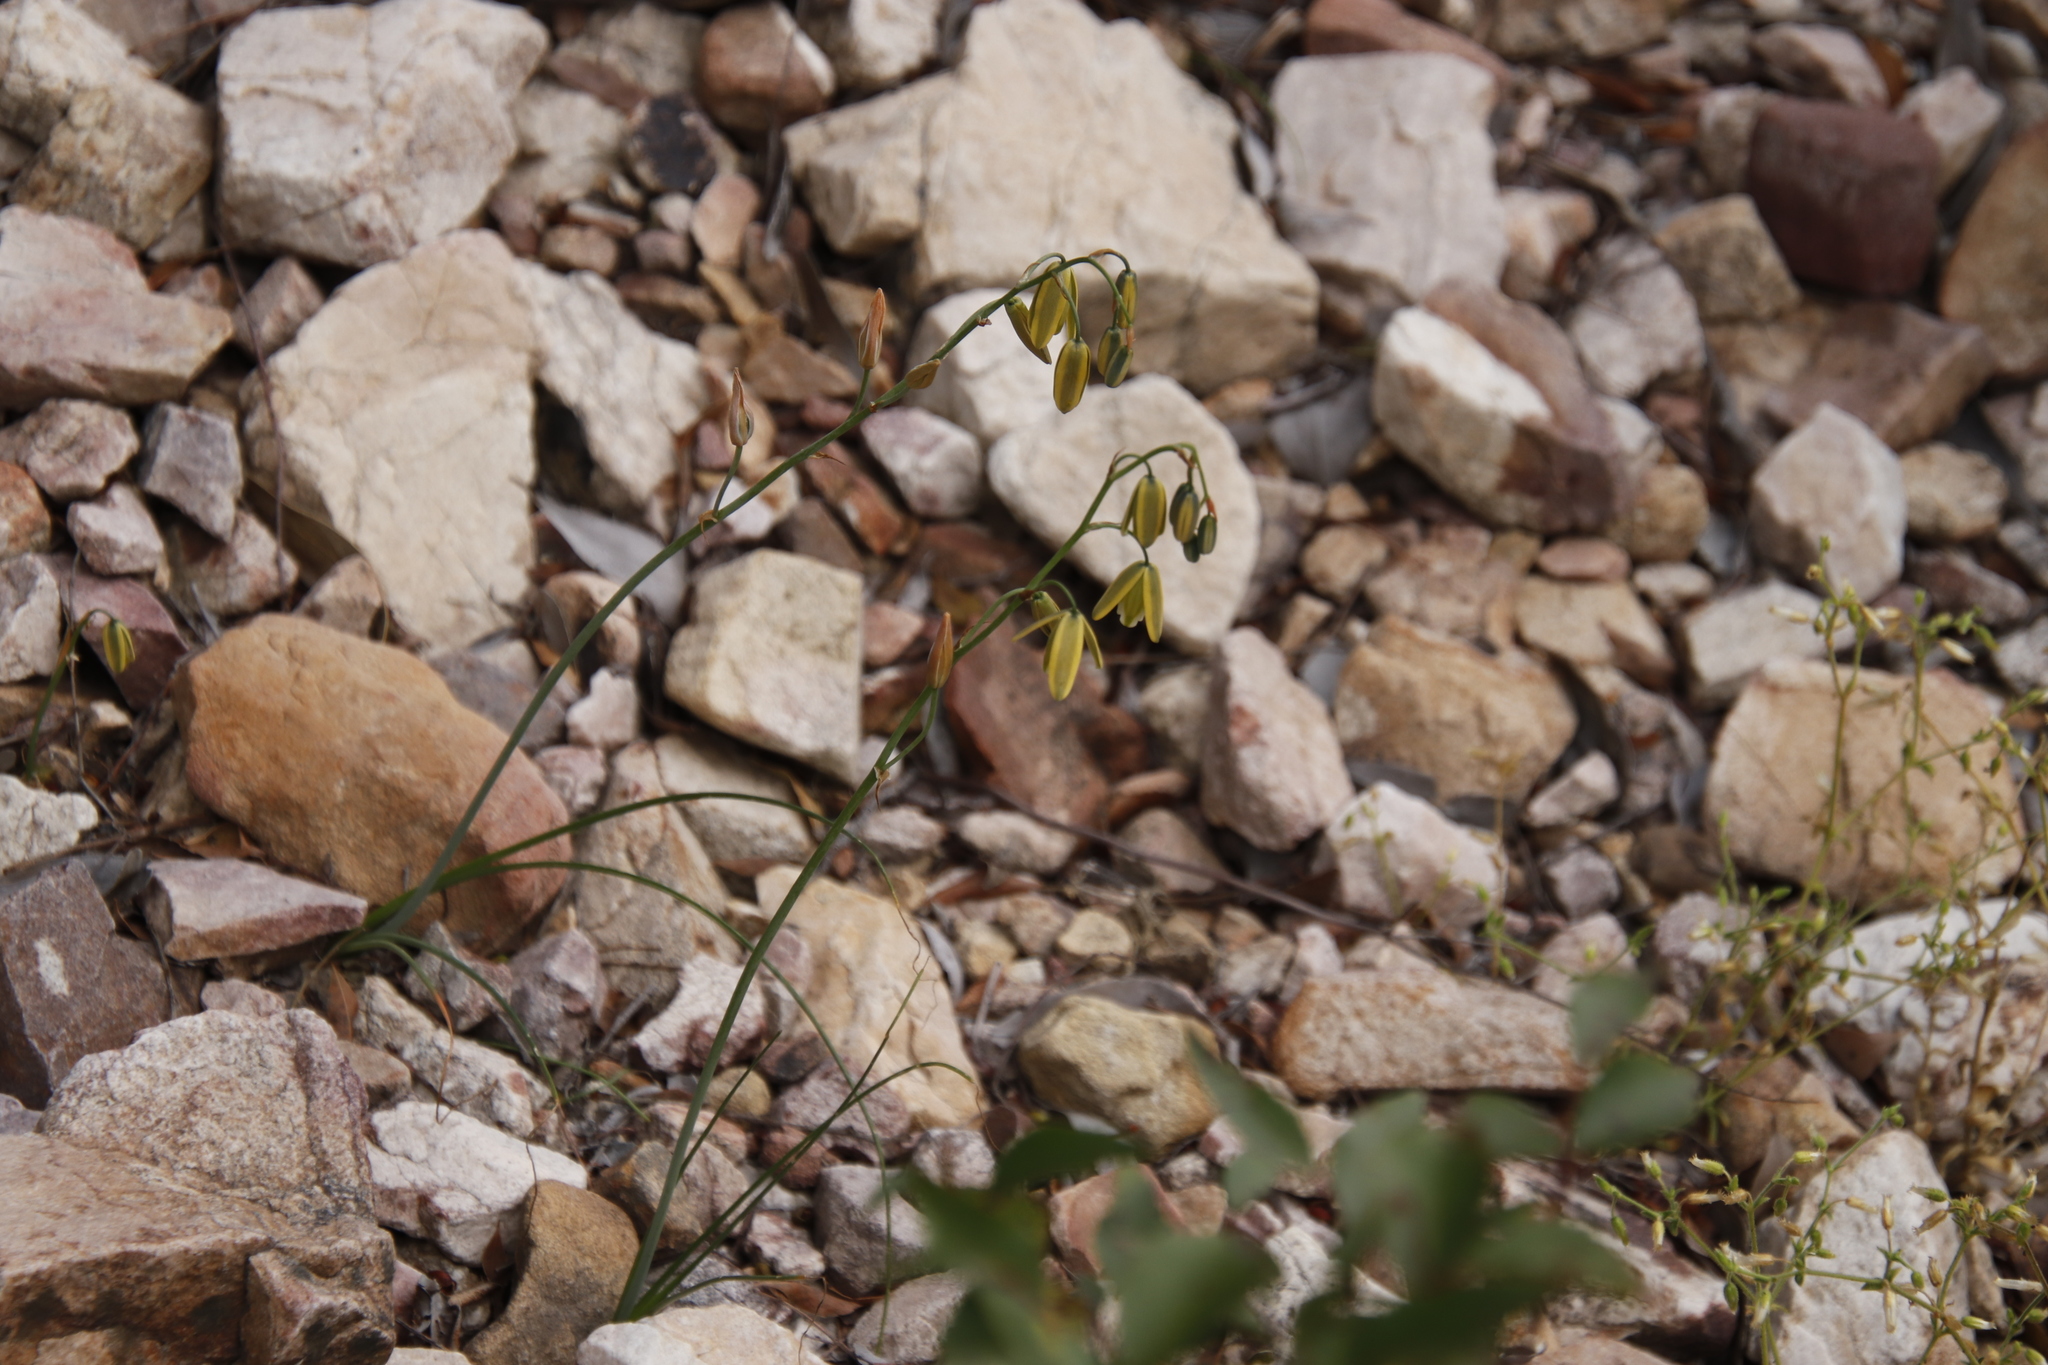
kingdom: Plantae
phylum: Tracheophyta
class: Magnoliopsida
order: Caryophyllales
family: Caryophyllaceae
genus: Cerastium
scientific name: Cerastium capense
